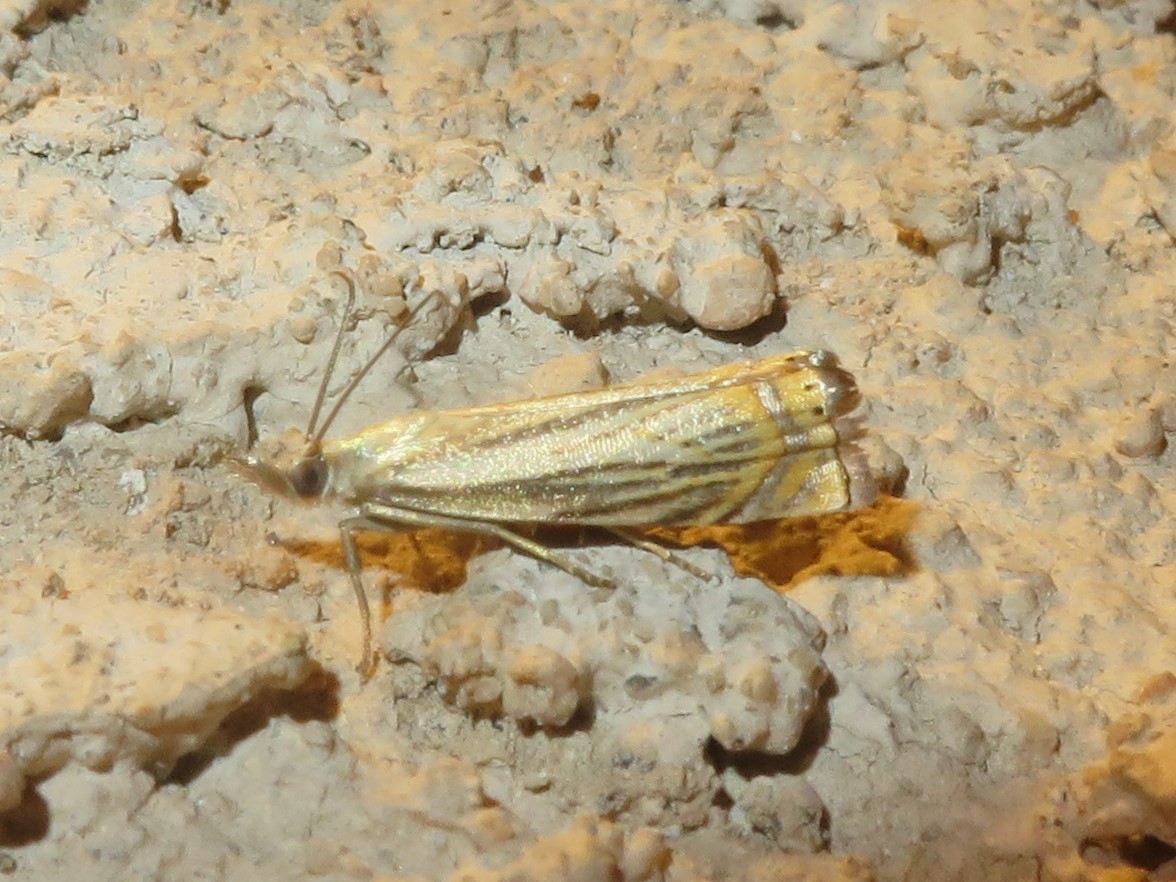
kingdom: Animalia
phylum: Arthropoda
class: Insecta
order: Lepidoptera
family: Crambidae
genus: Chrysoteuchia
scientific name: Chrysoteuchia topiarius
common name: Topiary grass-veneer
